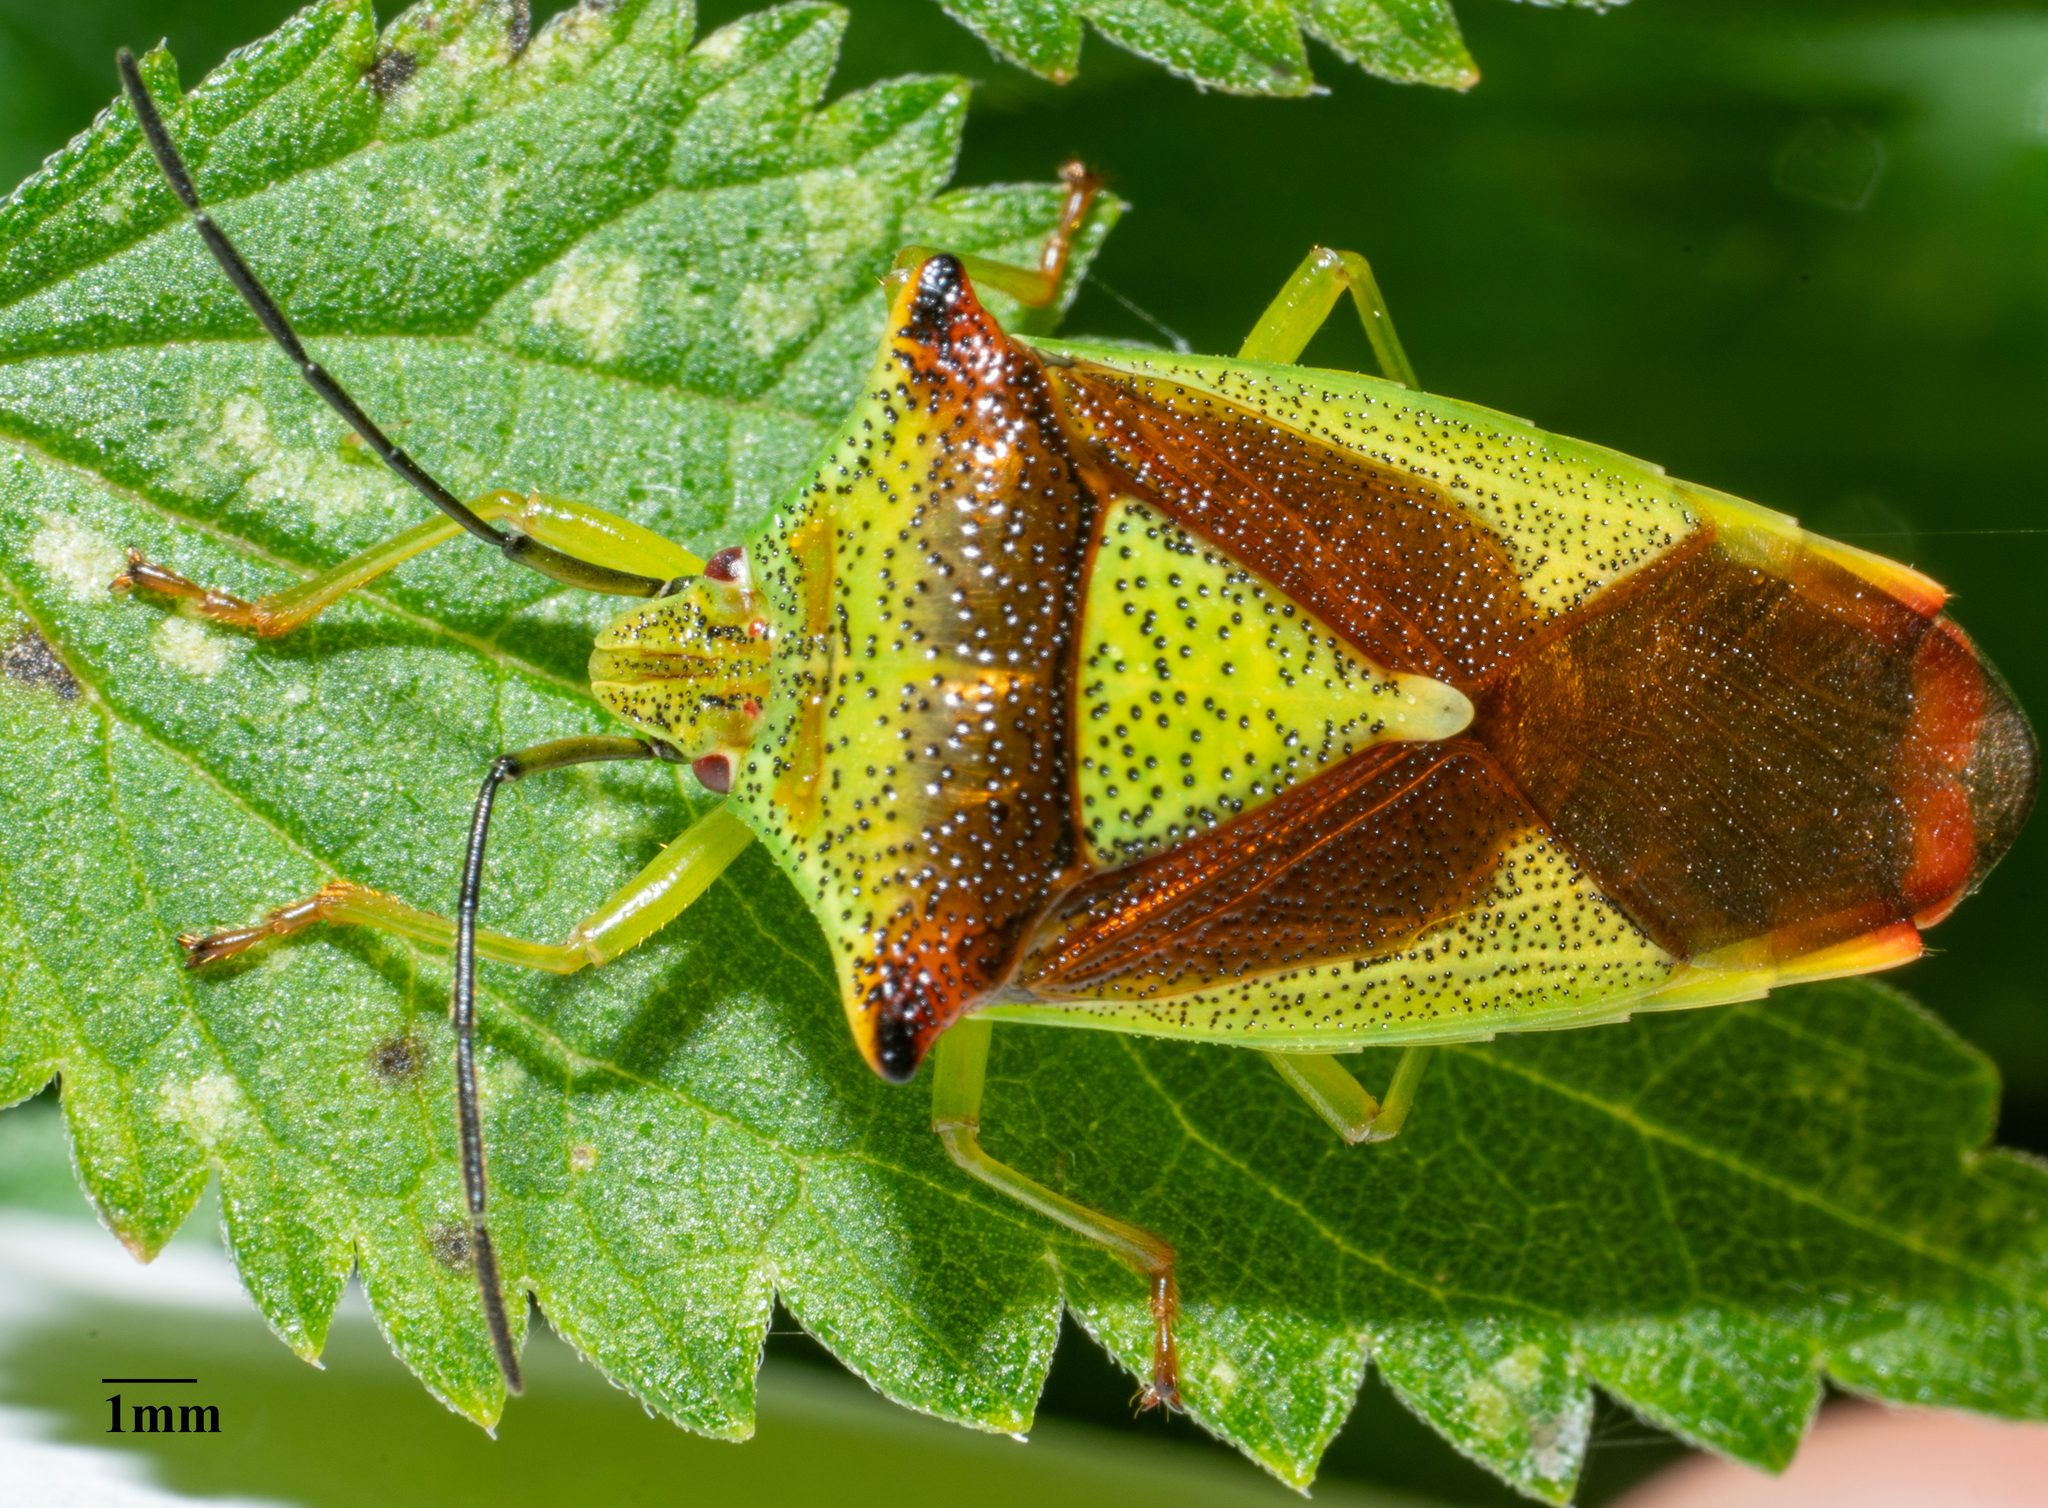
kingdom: Animalia
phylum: Arthropoda
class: Insecta
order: Hemiptera
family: Acanthosomatidae
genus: Acanthosoma
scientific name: Acanthosoma haemorrhoidale
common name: Hawthorn shieldbug
